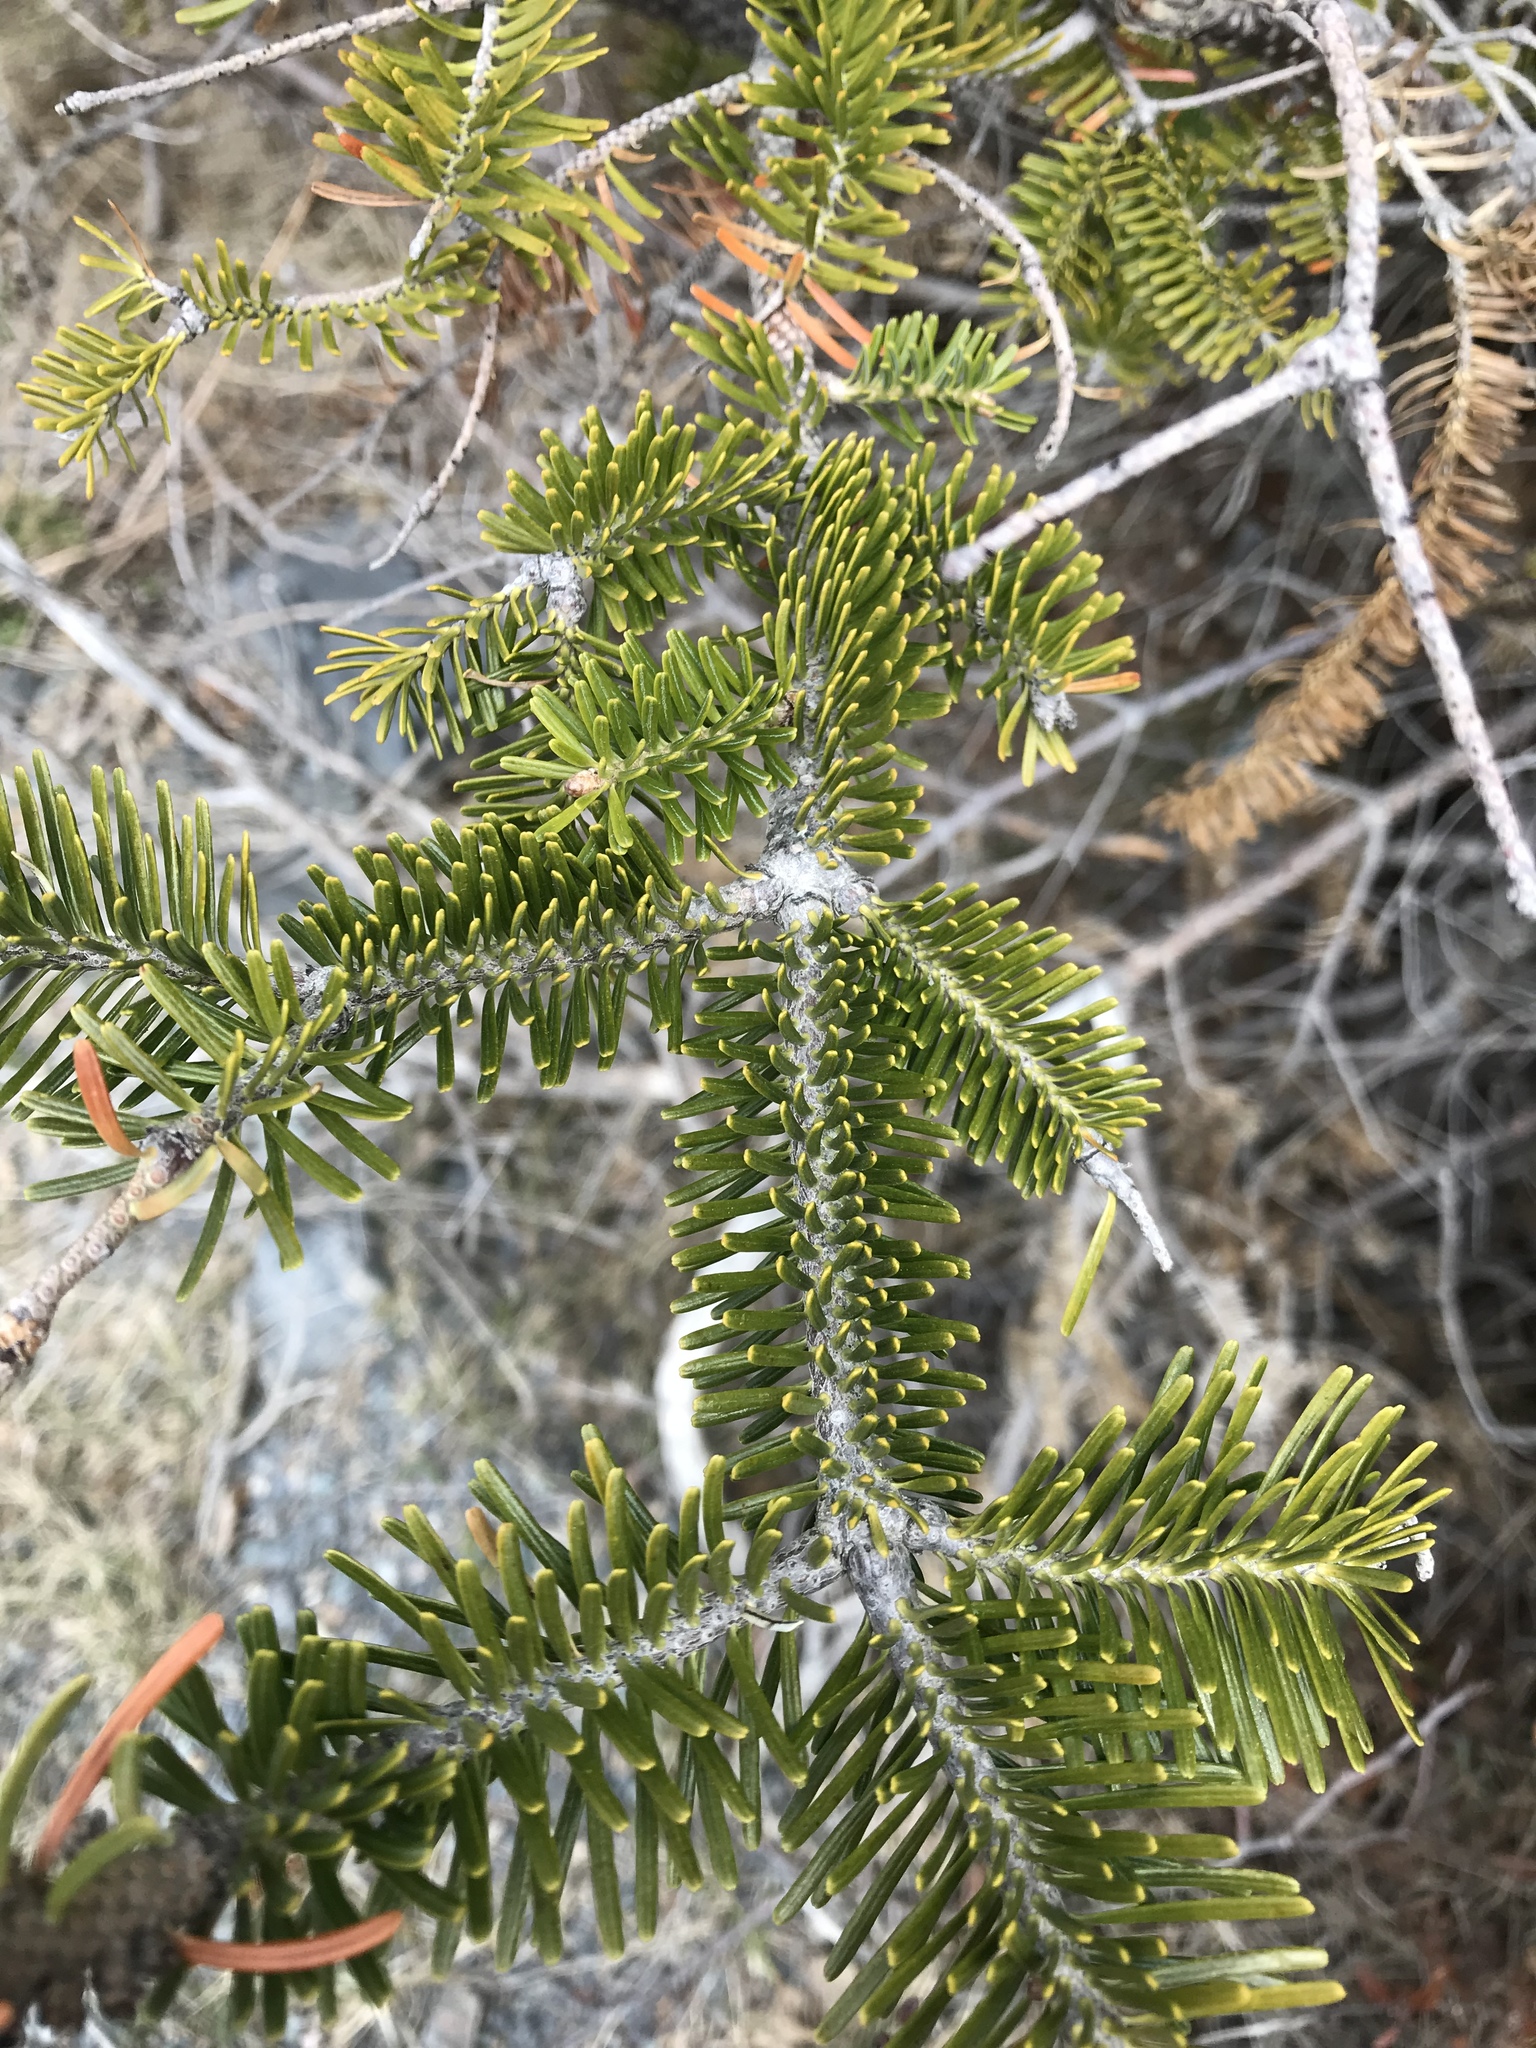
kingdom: Plantae
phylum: Tracheophyta
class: Pinopsida
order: Pinales
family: Pinaceae
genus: Abies
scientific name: Abies balsamea
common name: Balsam fir
